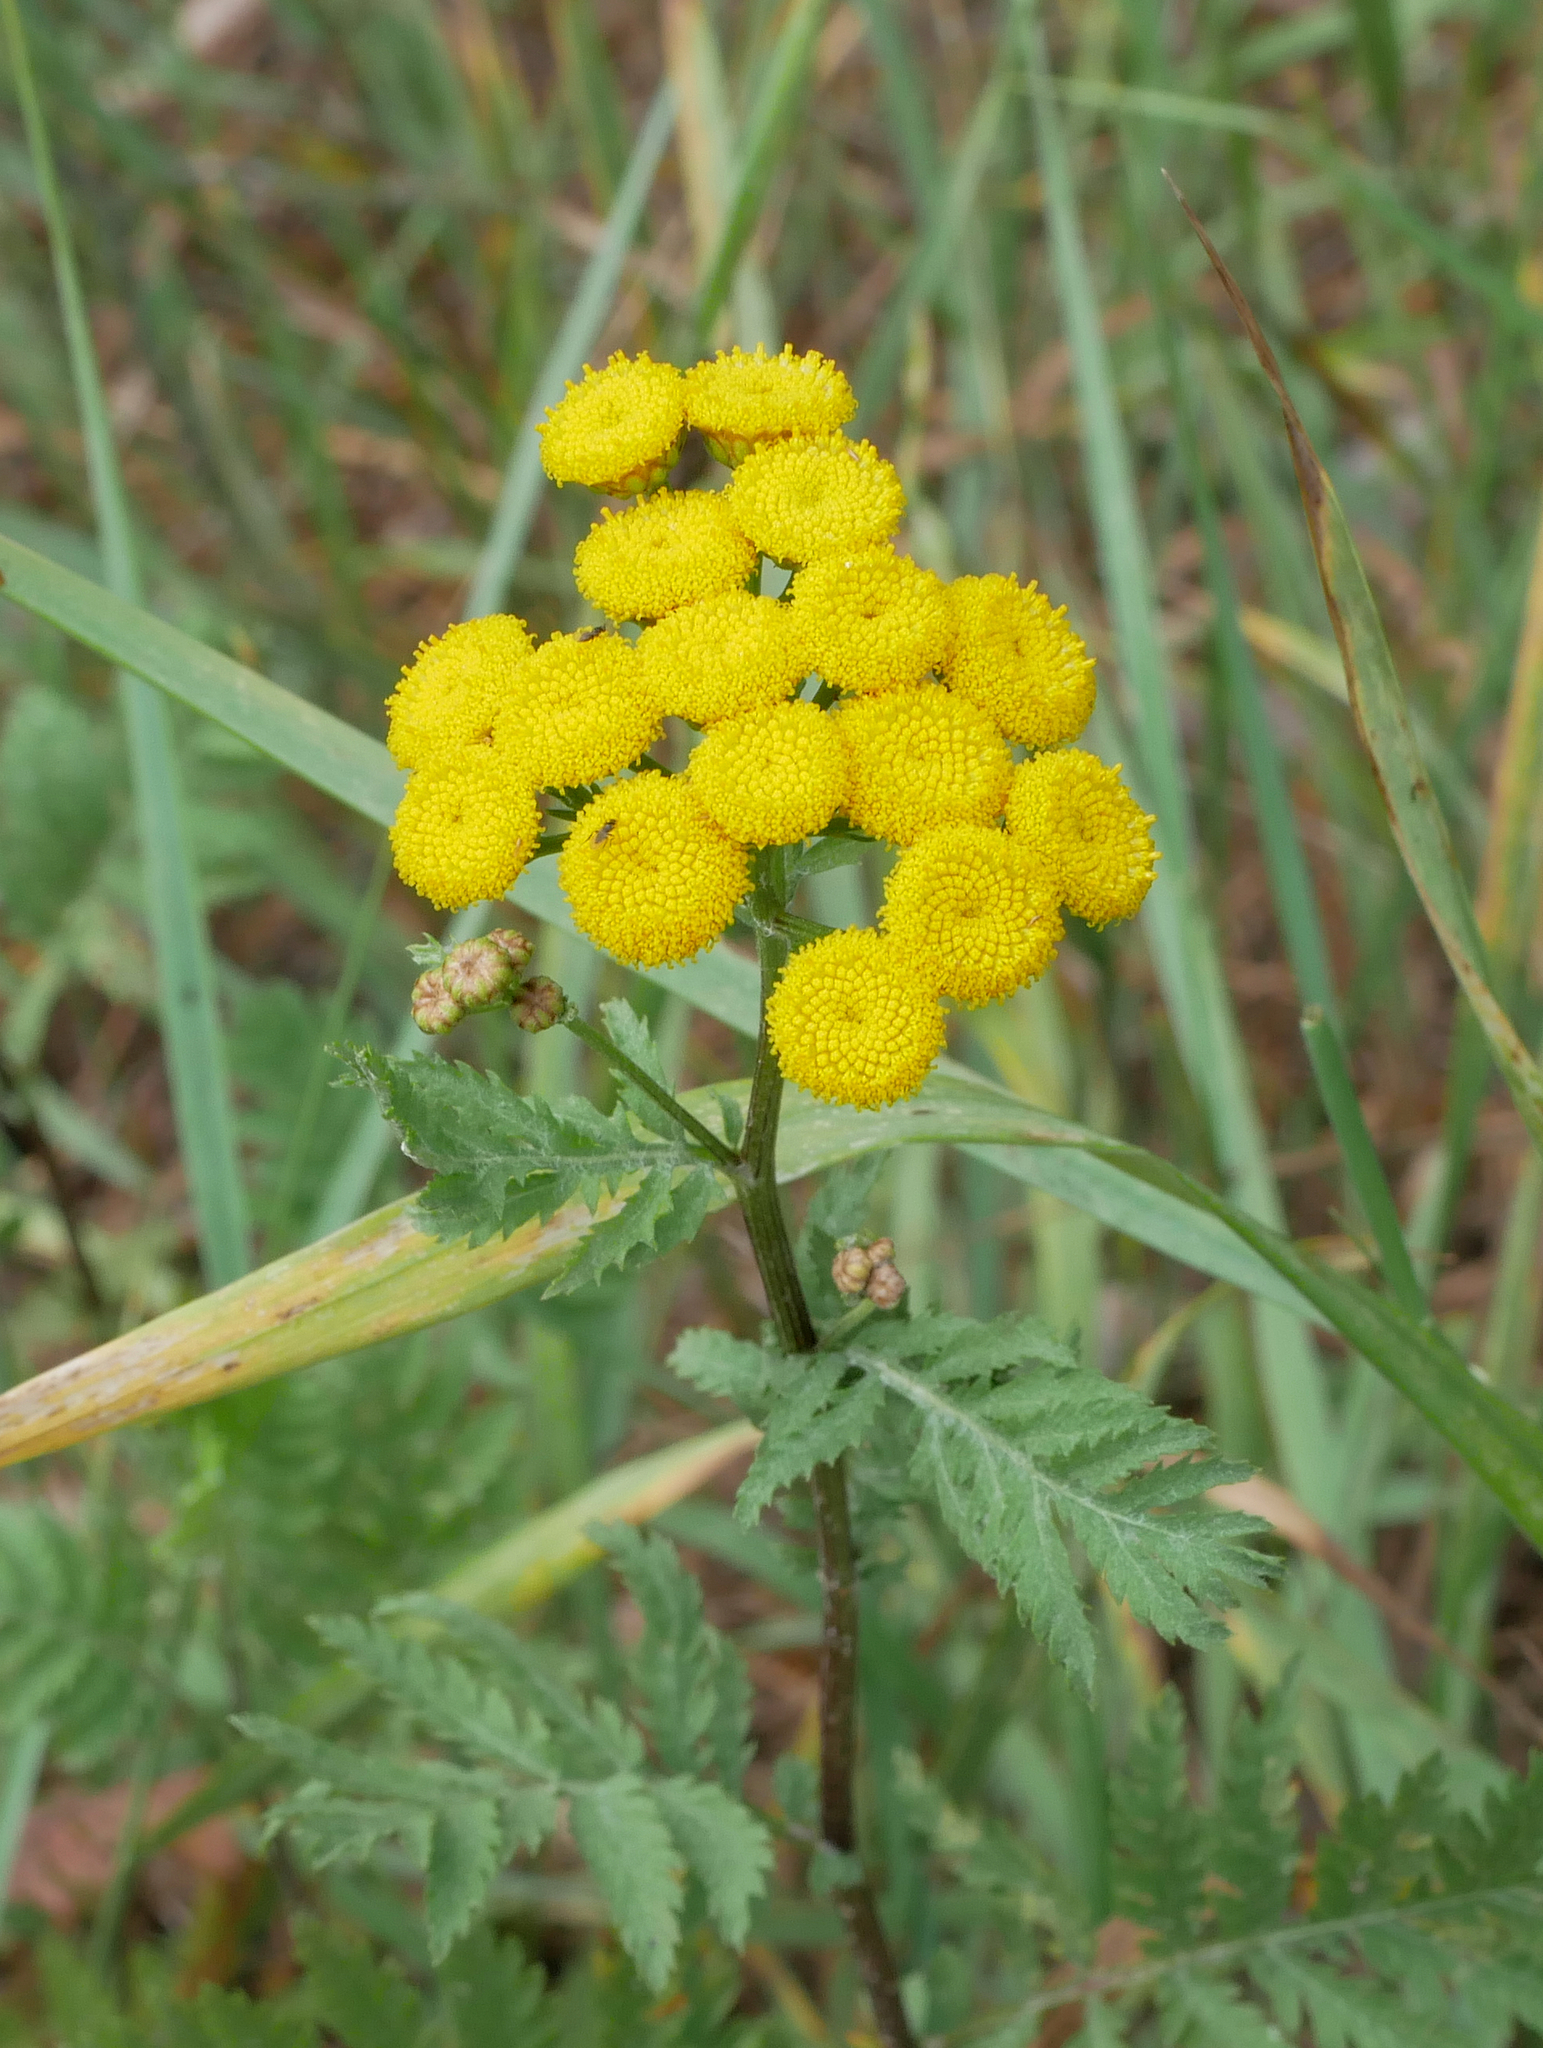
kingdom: Plantae
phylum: Tracheophyta
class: Magnoliopsida
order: Asterales
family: Asteraceae
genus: Tanacetum
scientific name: Tanacetum vulgare
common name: Common tansy
